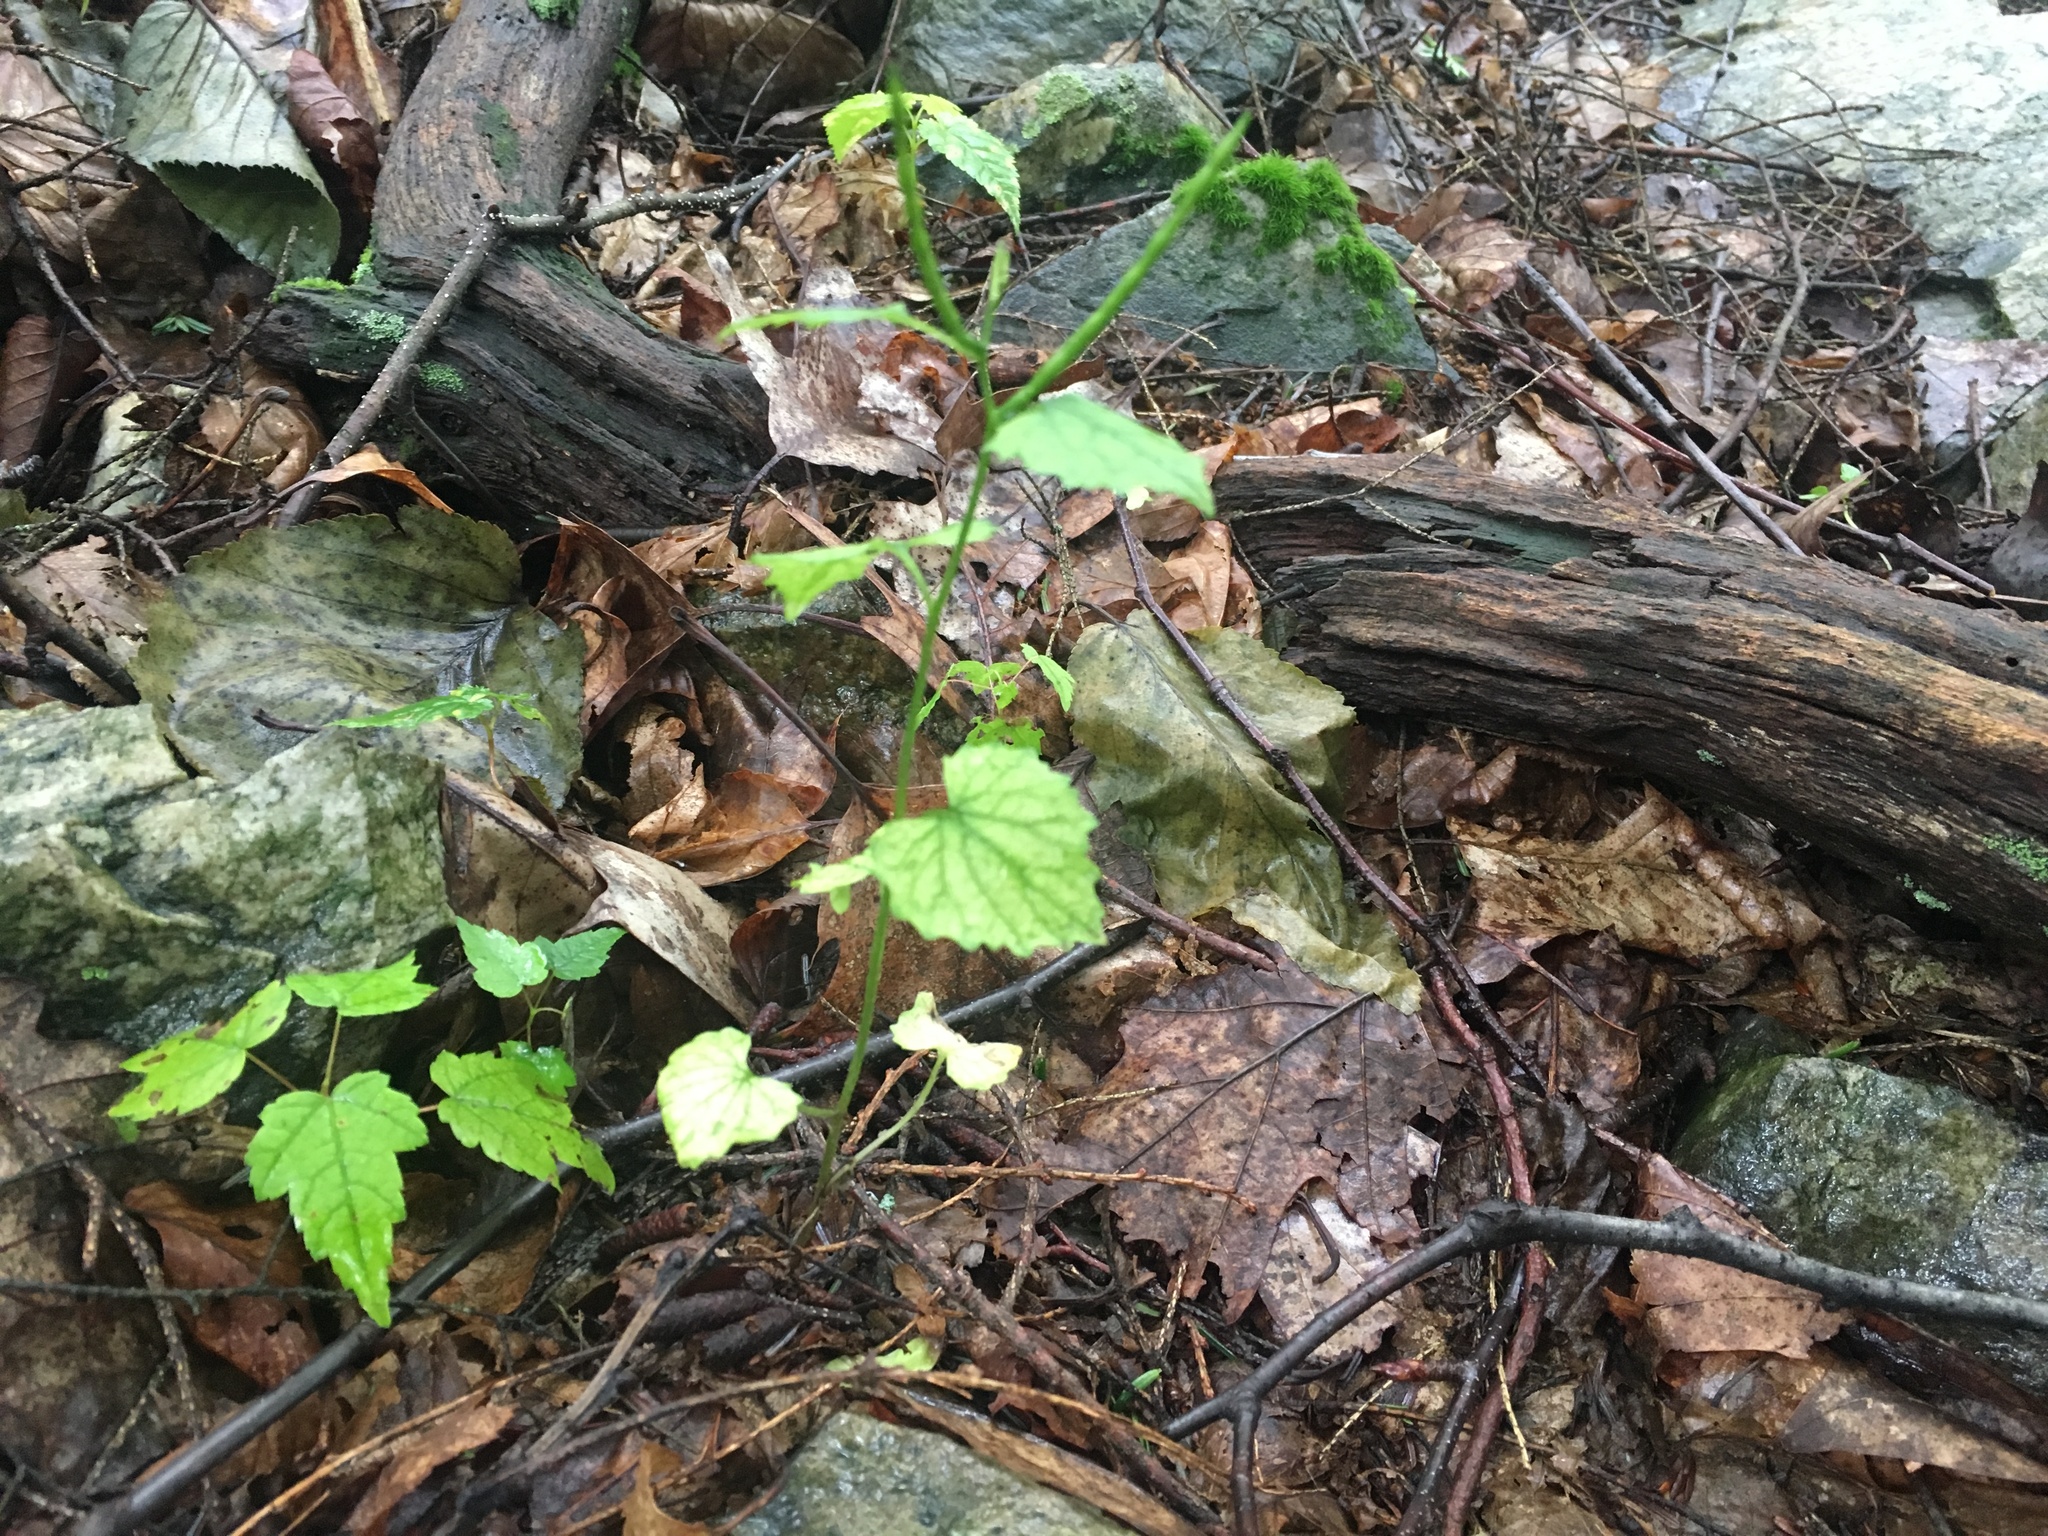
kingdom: Plantae
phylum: Tracheophyta
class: Magnoliopsida
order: Brassicales
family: Brassicaceae
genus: Alliaria
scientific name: Alliaria petiolata
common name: Garlic mustard
